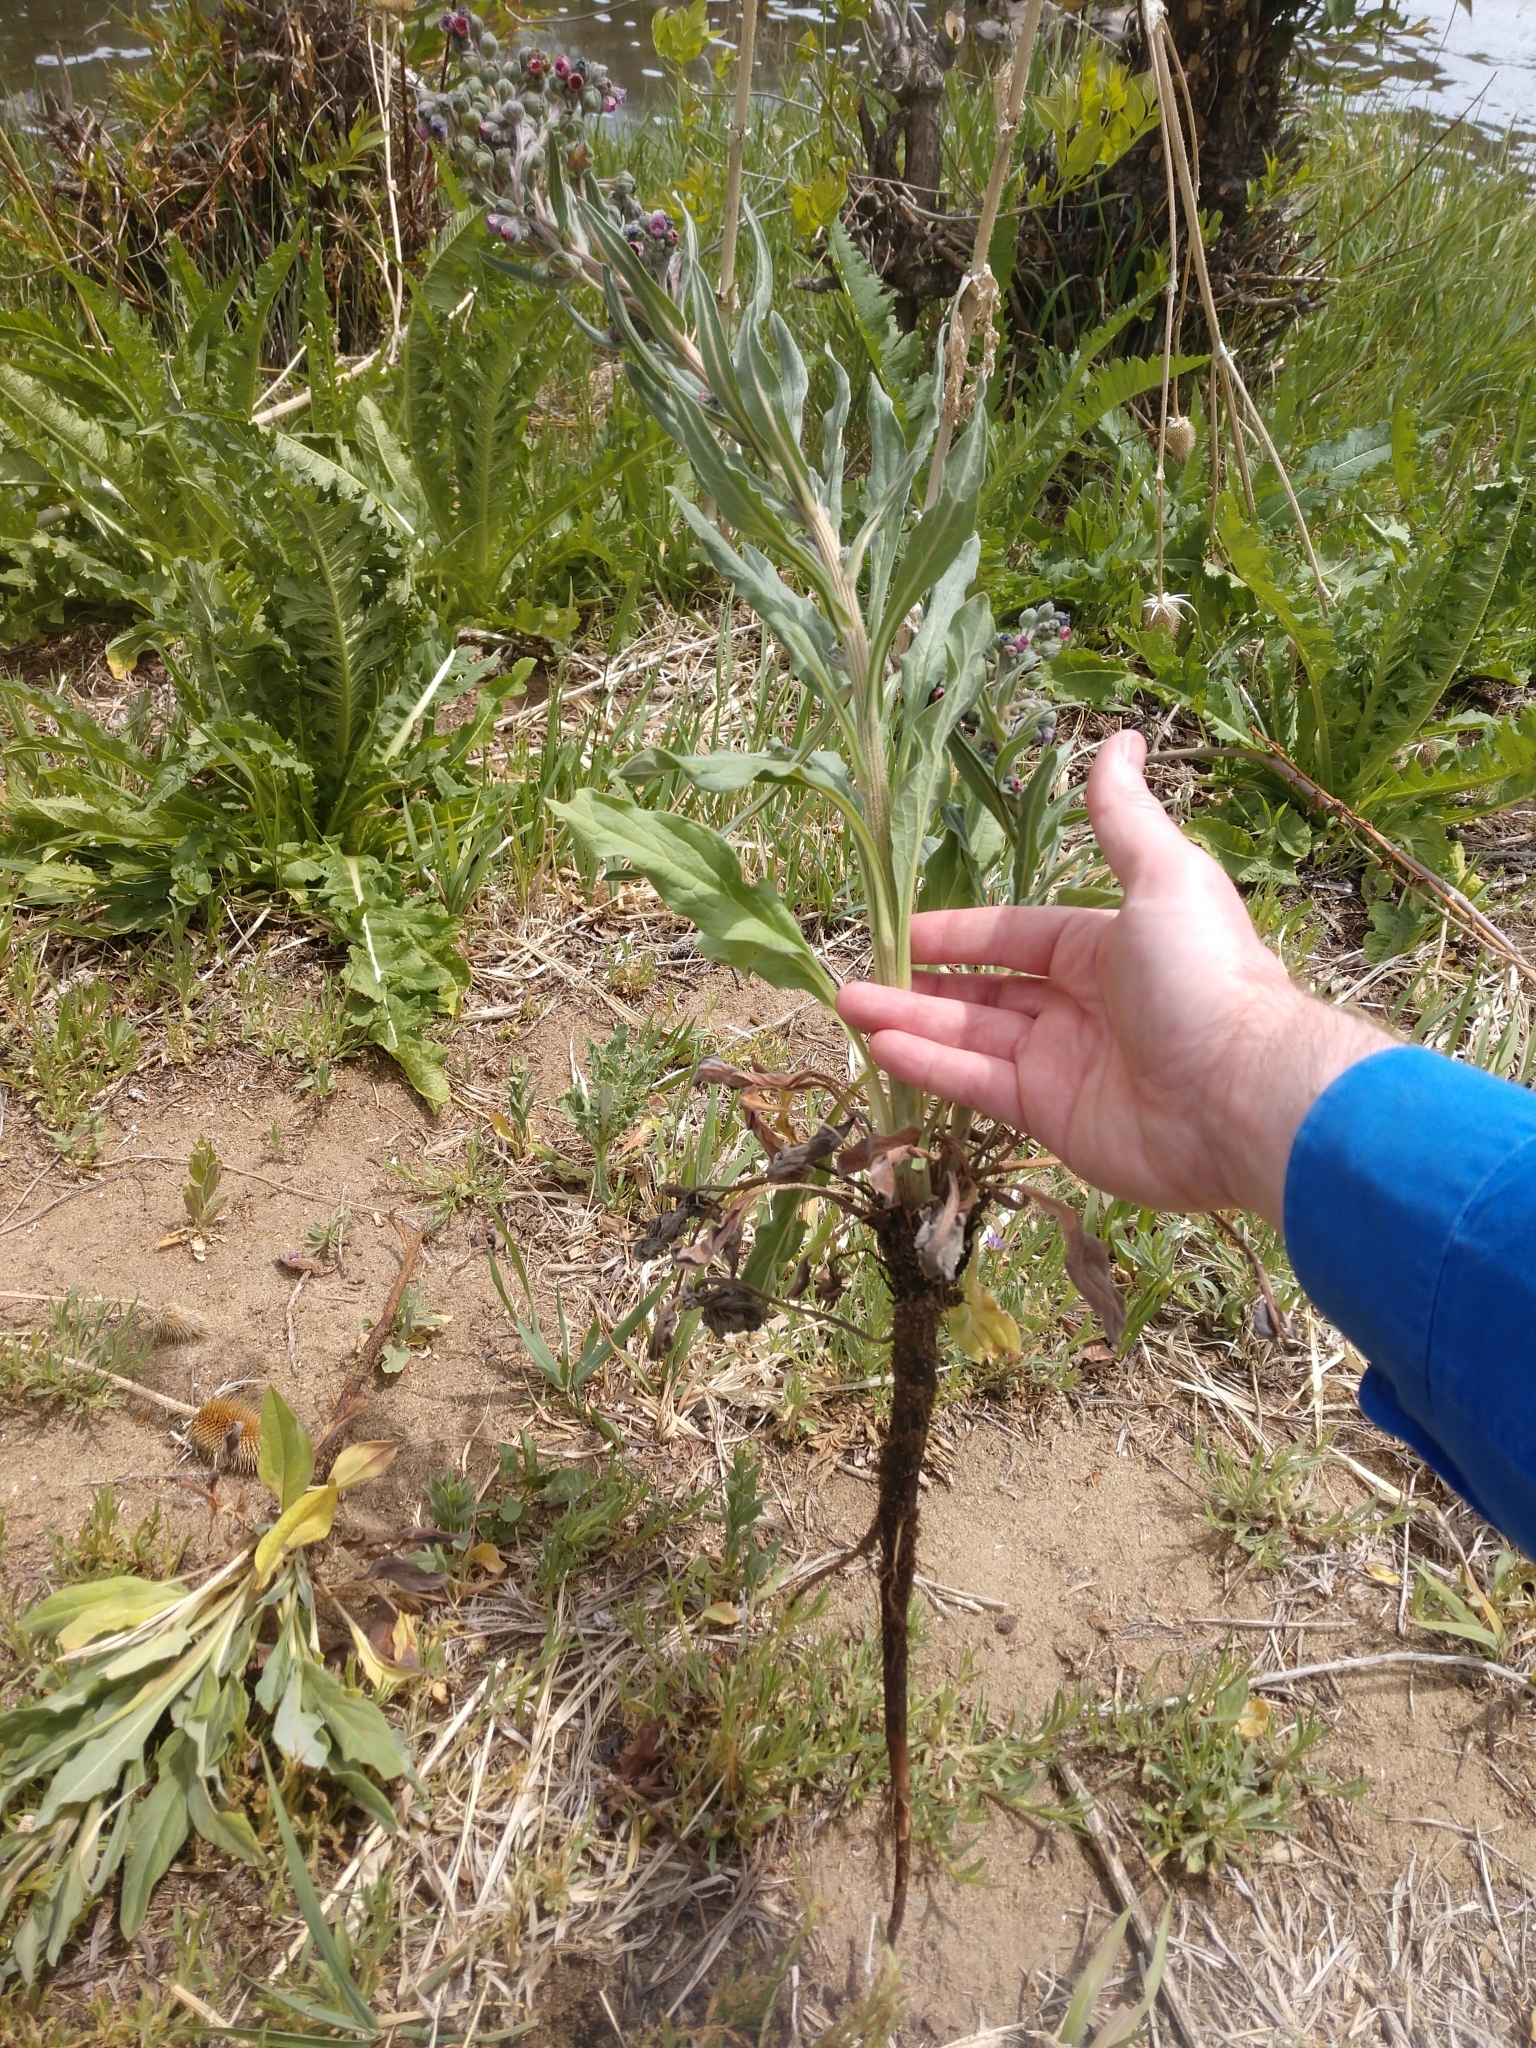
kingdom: Plantae
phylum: Tracheophyta
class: Magnoliopsida
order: Boraginales
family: Boraginaceae
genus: Cynoglossum
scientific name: Cynoglossum officinale
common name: Hound's-tongue
